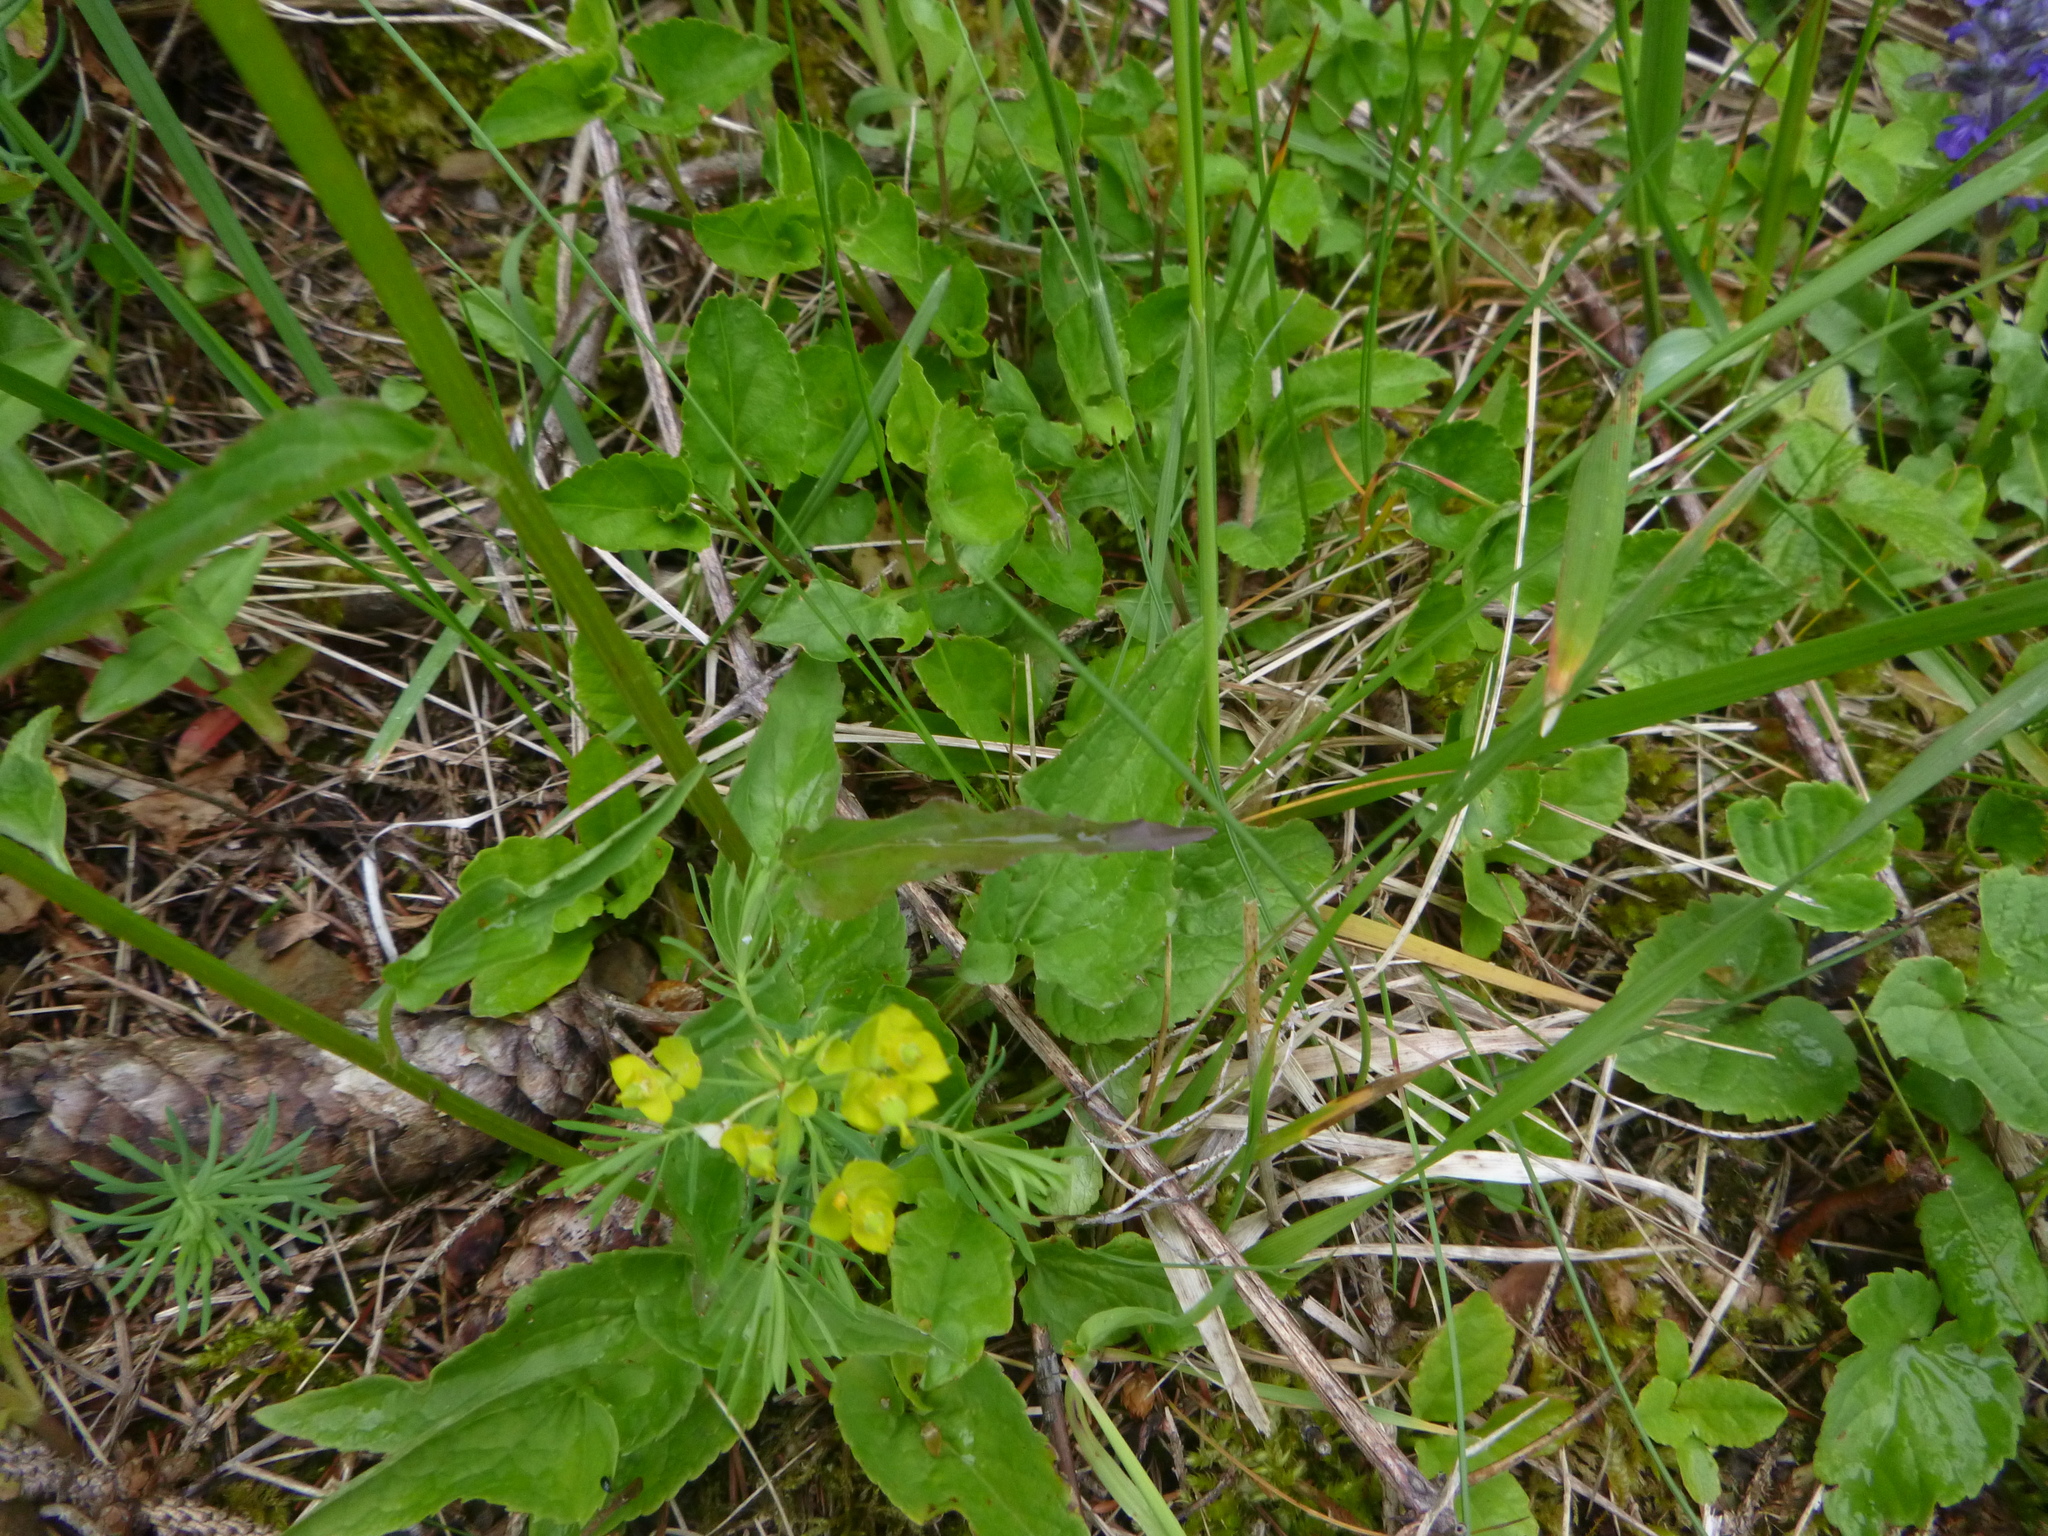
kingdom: Plantae
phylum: Tracheophyta
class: Magnoliopsida
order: Asterales
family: Campanulaceae
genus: Phyteuma
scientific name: Phyteuma spicatum
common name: Spiked rampion
